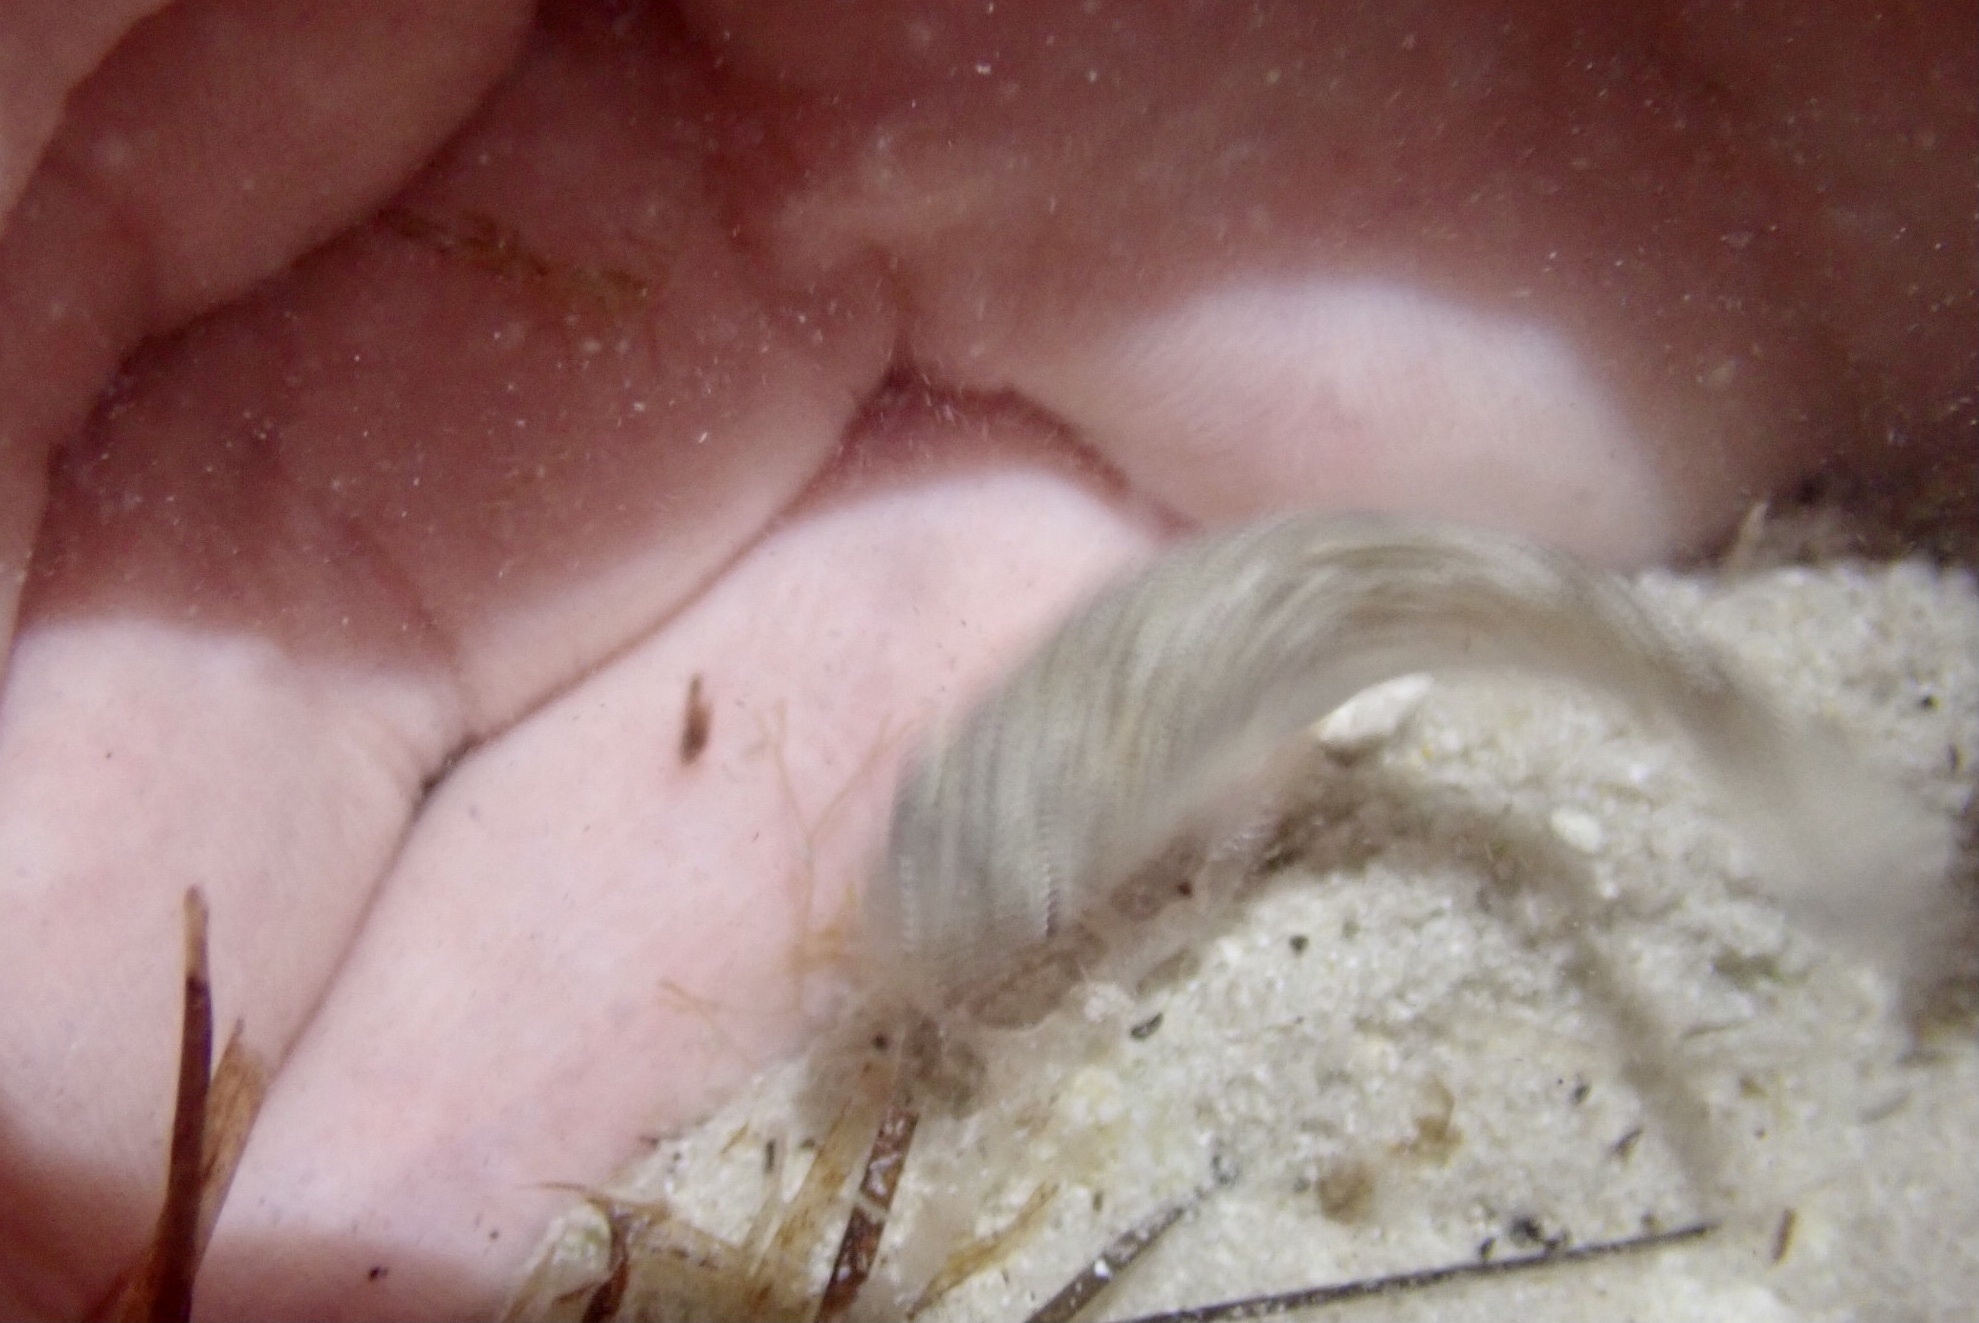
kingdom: Animalia
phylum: Chordata
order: Cyprinodontiformes
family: Cyprinodontidae
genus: Cyprinodon
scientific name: Cyprinodon variegatus
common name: Sheepshead minnow
